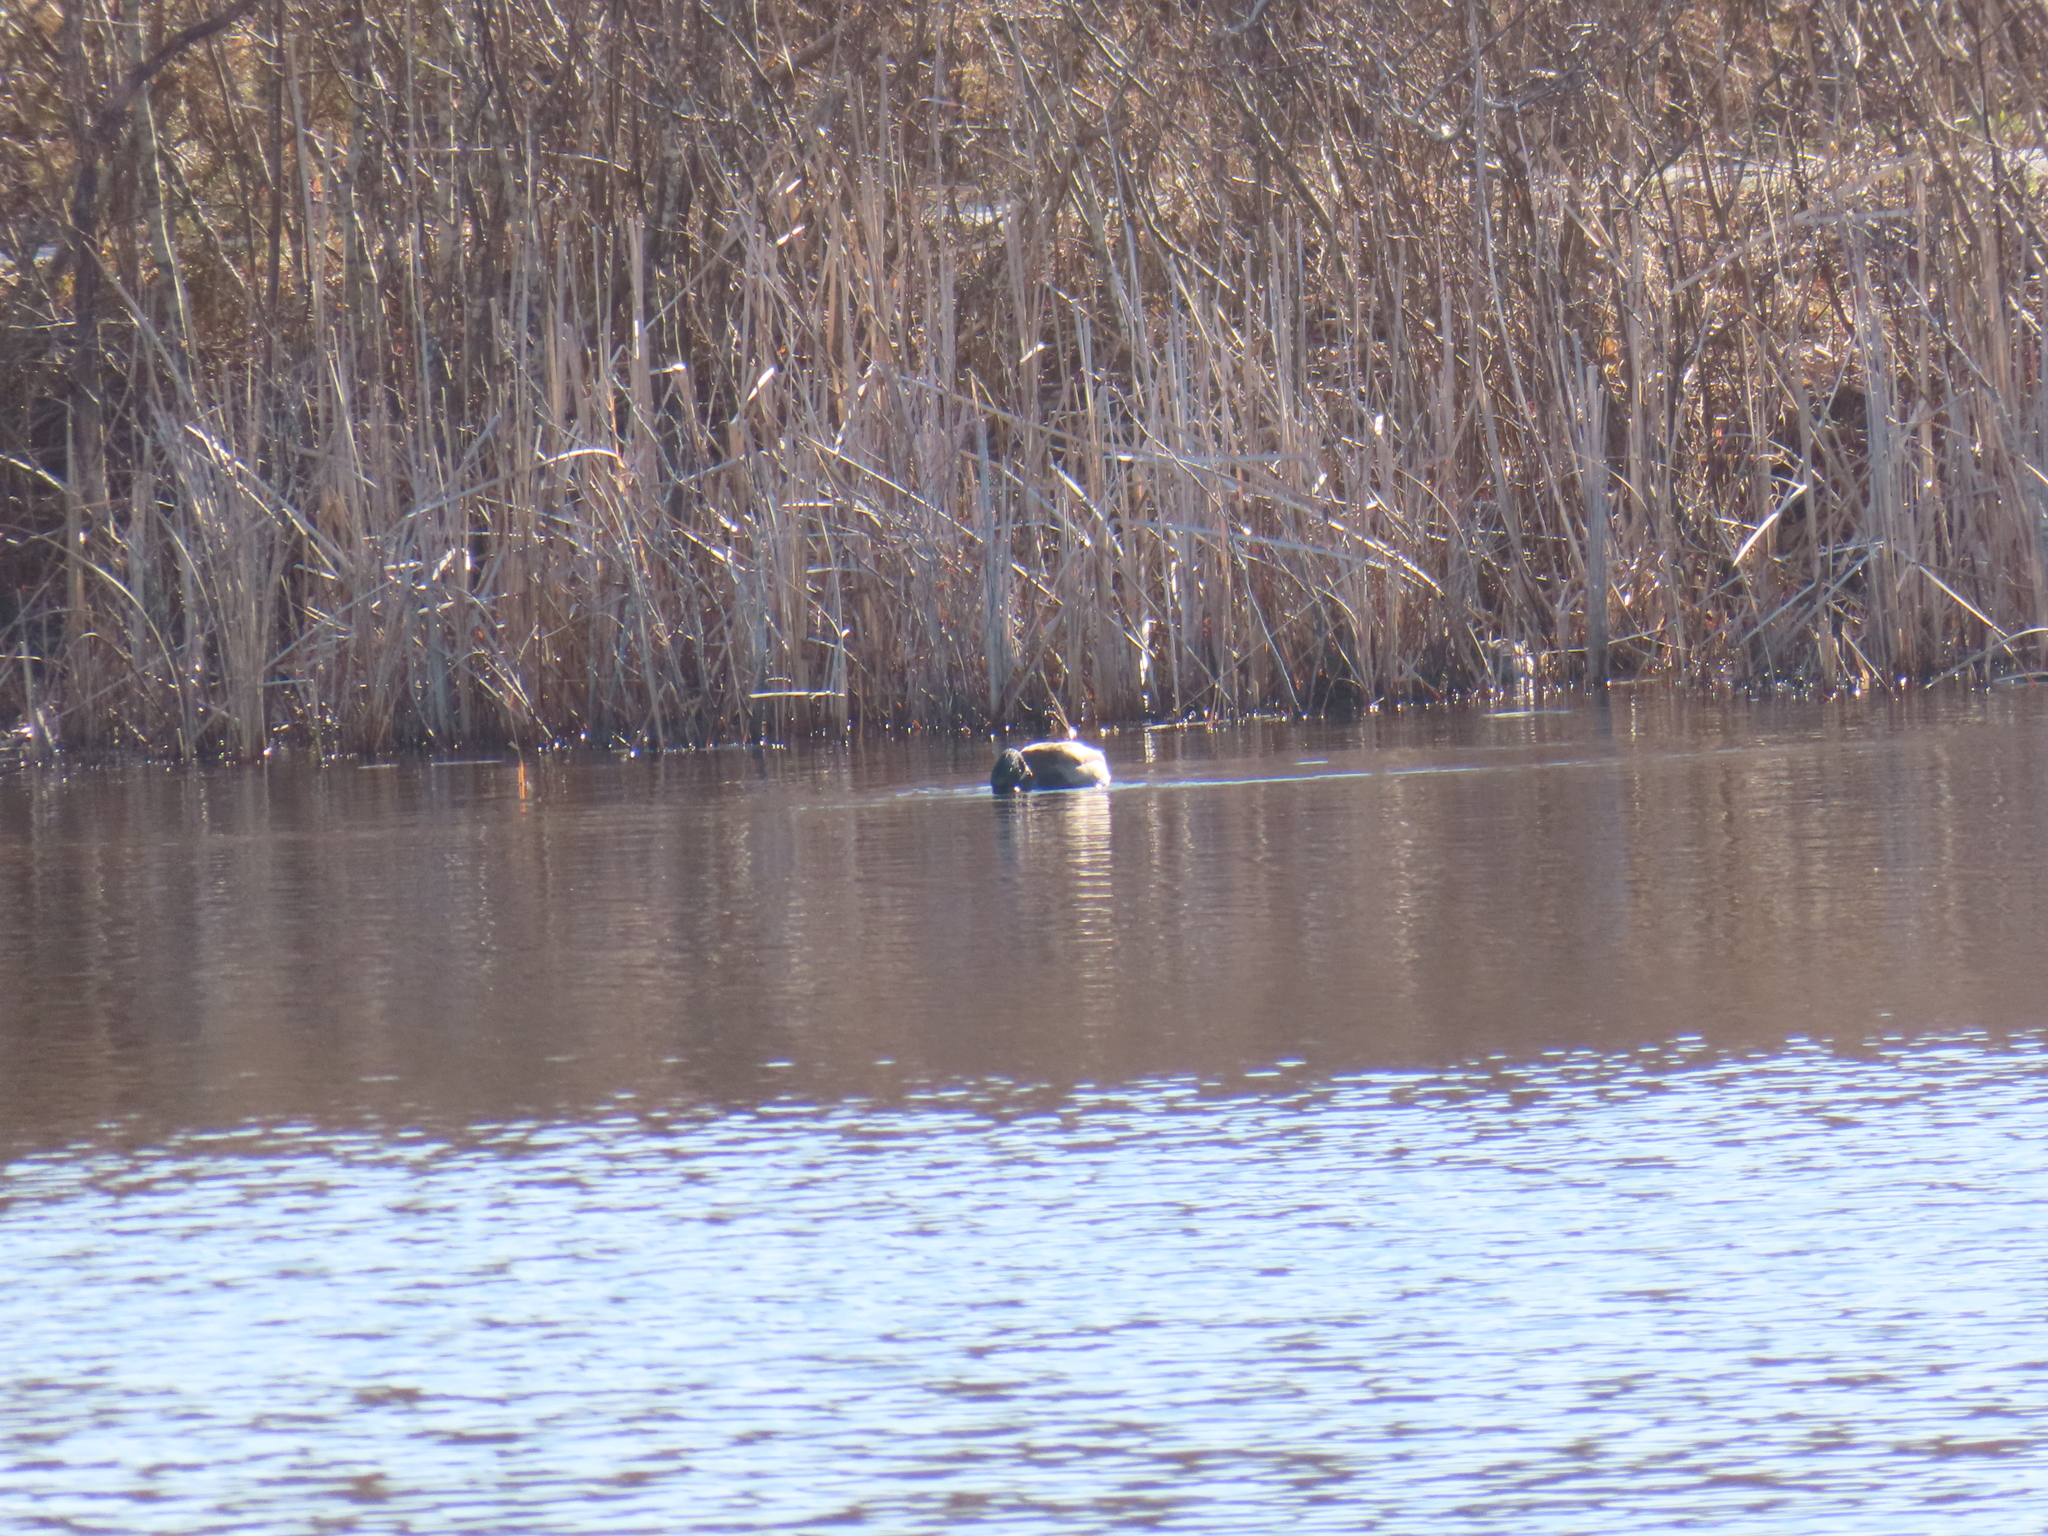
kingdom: Animalia
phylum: Chordata
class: Aves
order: Anseriformes
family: Anatidae
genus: Anas
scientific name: Anas platyrhynchos
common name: Mallard
